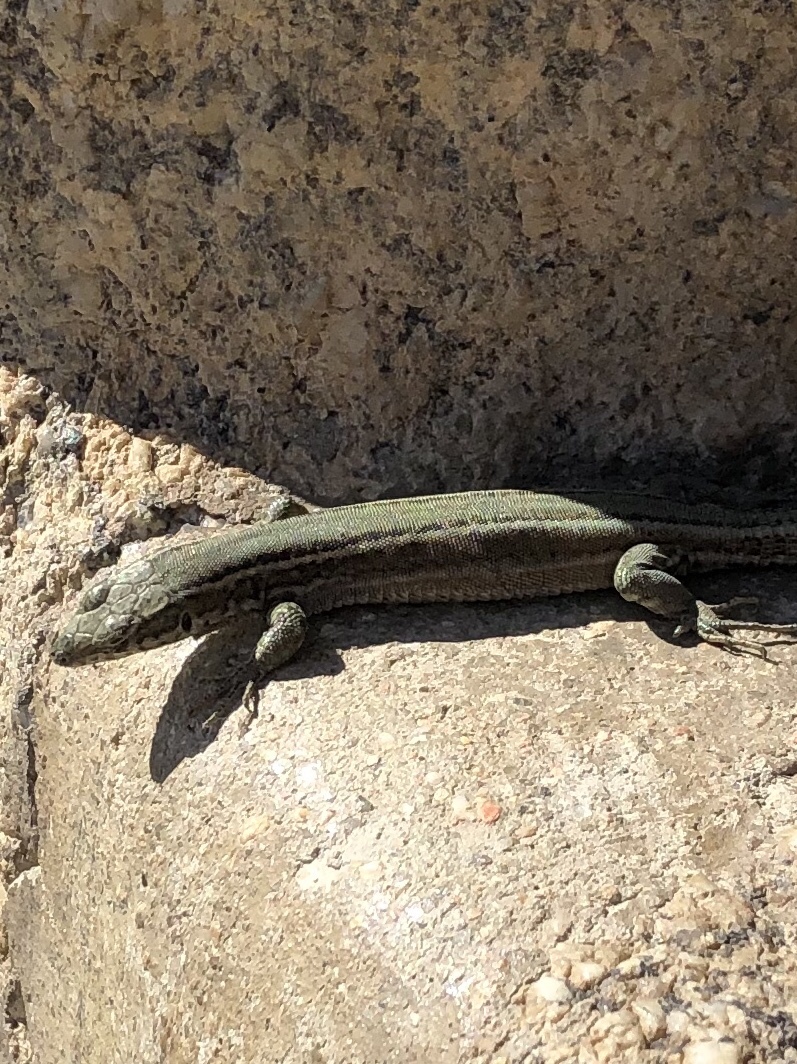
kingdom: Animalia
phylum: Chordata
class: Squamata
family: Lacertidae
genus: Podarcis
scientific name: Podarcis guadarramae
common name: Guadarrama wall lizard
